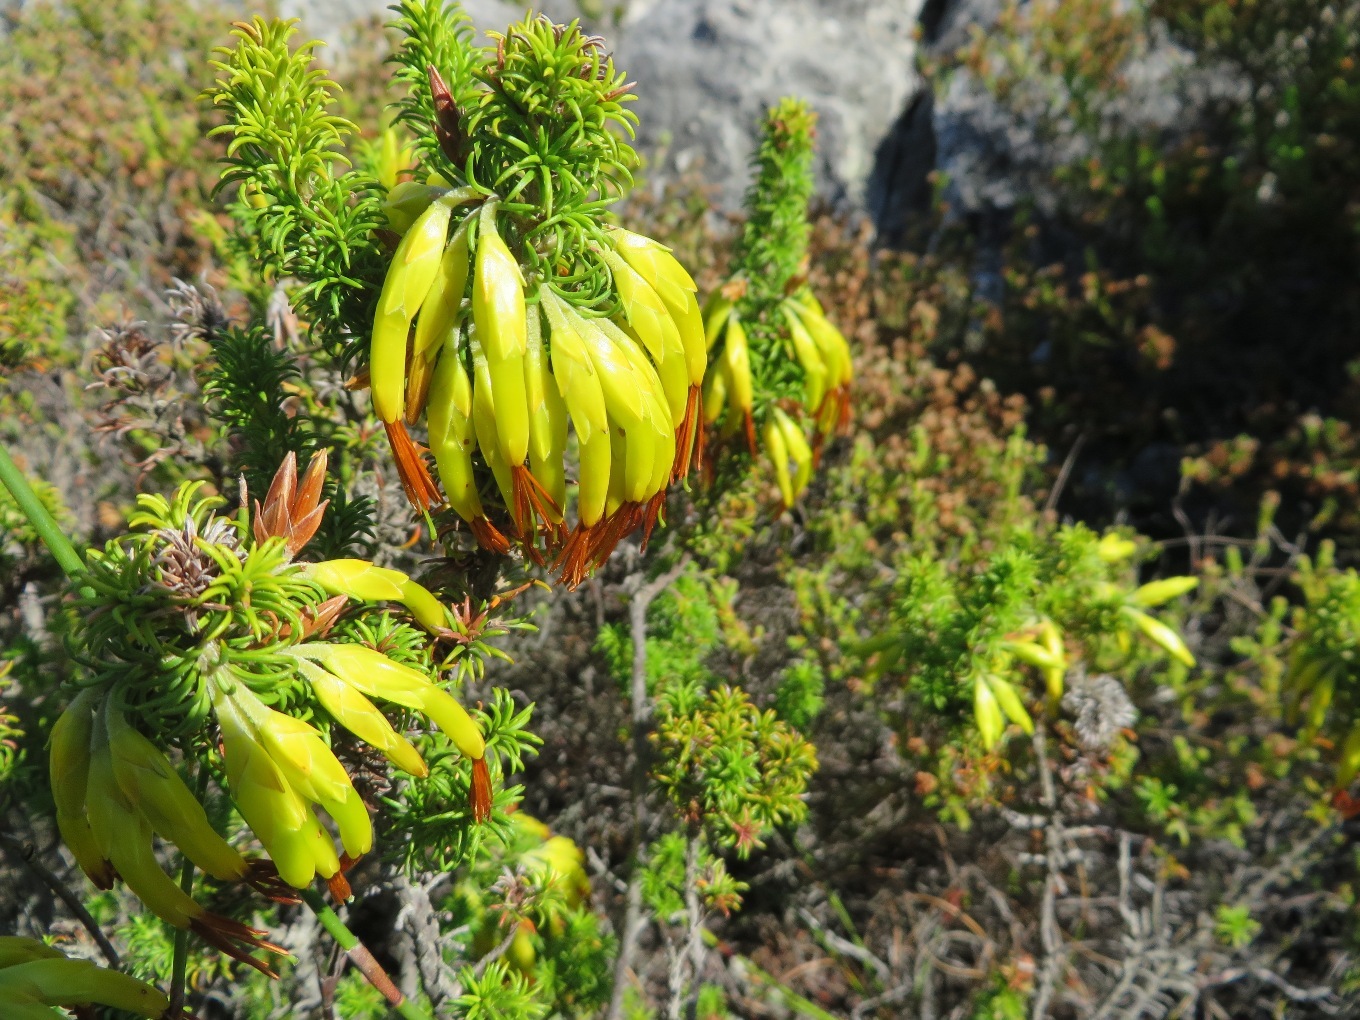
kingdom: Plantae
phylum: Tracheophyta
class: Magnoliopsida
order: Ericales
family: Ericaceae
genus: Erica
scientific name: Erica coccinea
